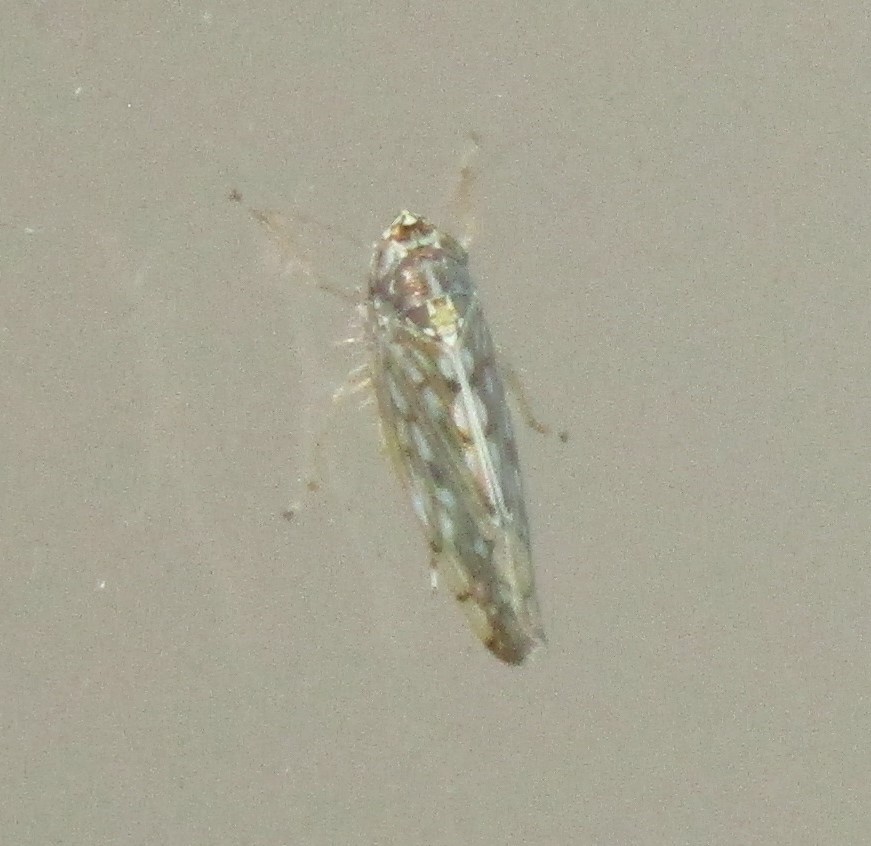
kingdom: Animalia
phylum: Arthropoda
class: Insecta
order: Hemiptera
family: Cicadellidae
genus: Osbornellus
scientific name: Osbornellus clarus
